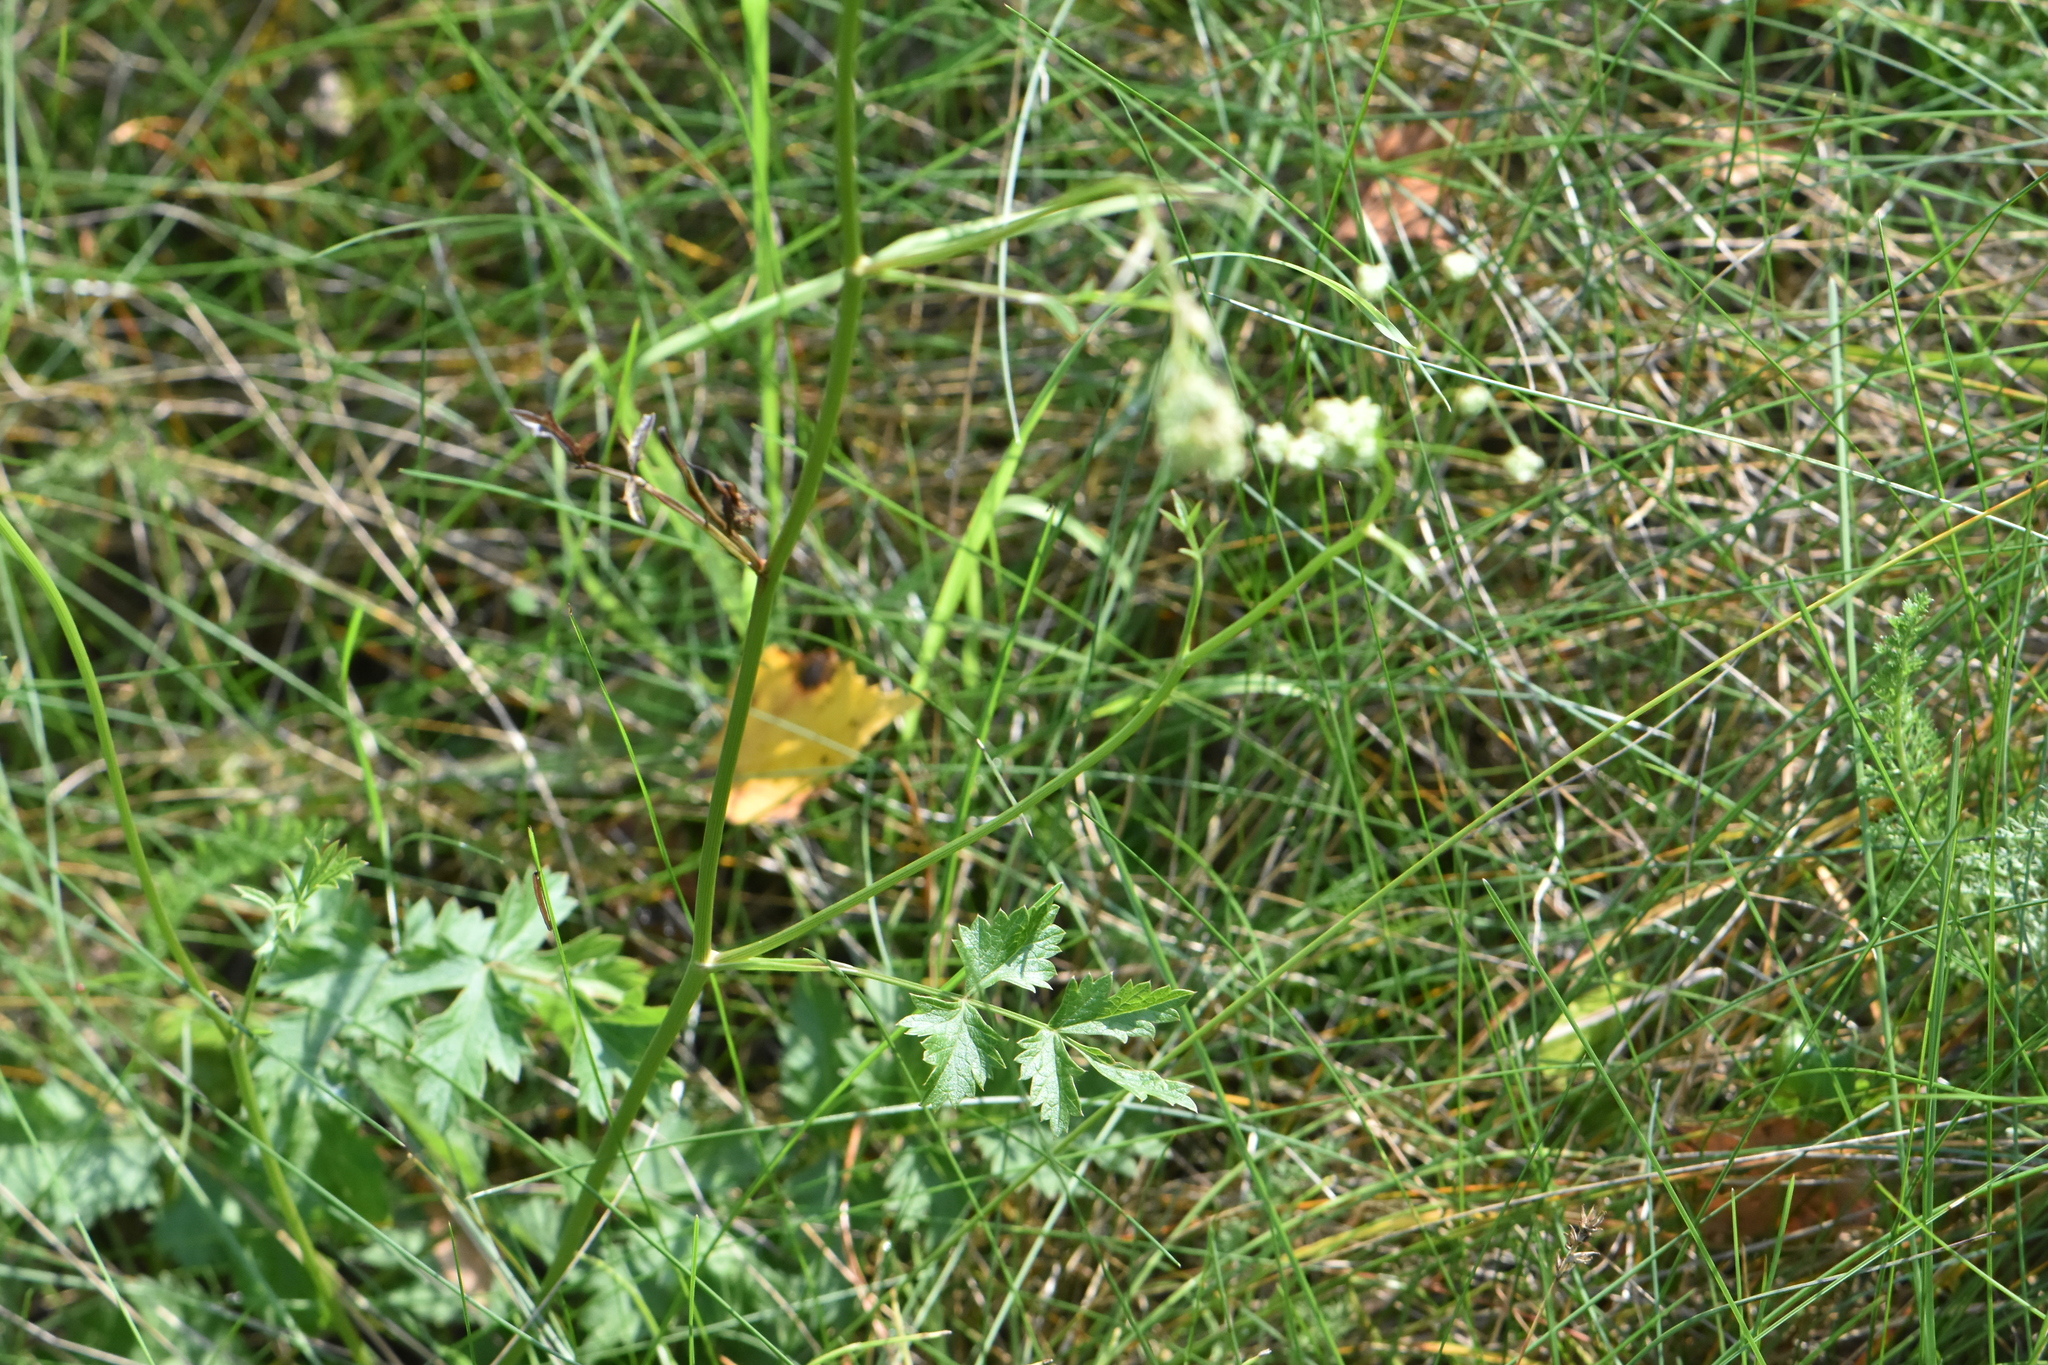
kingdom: Plantae
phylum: Tracheophyta
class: Magnoliopsida
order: Apiales
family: Apiaceae
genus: Pimpinella
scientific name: Pimpinella saxifraga
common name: Burnet-saxifrage
